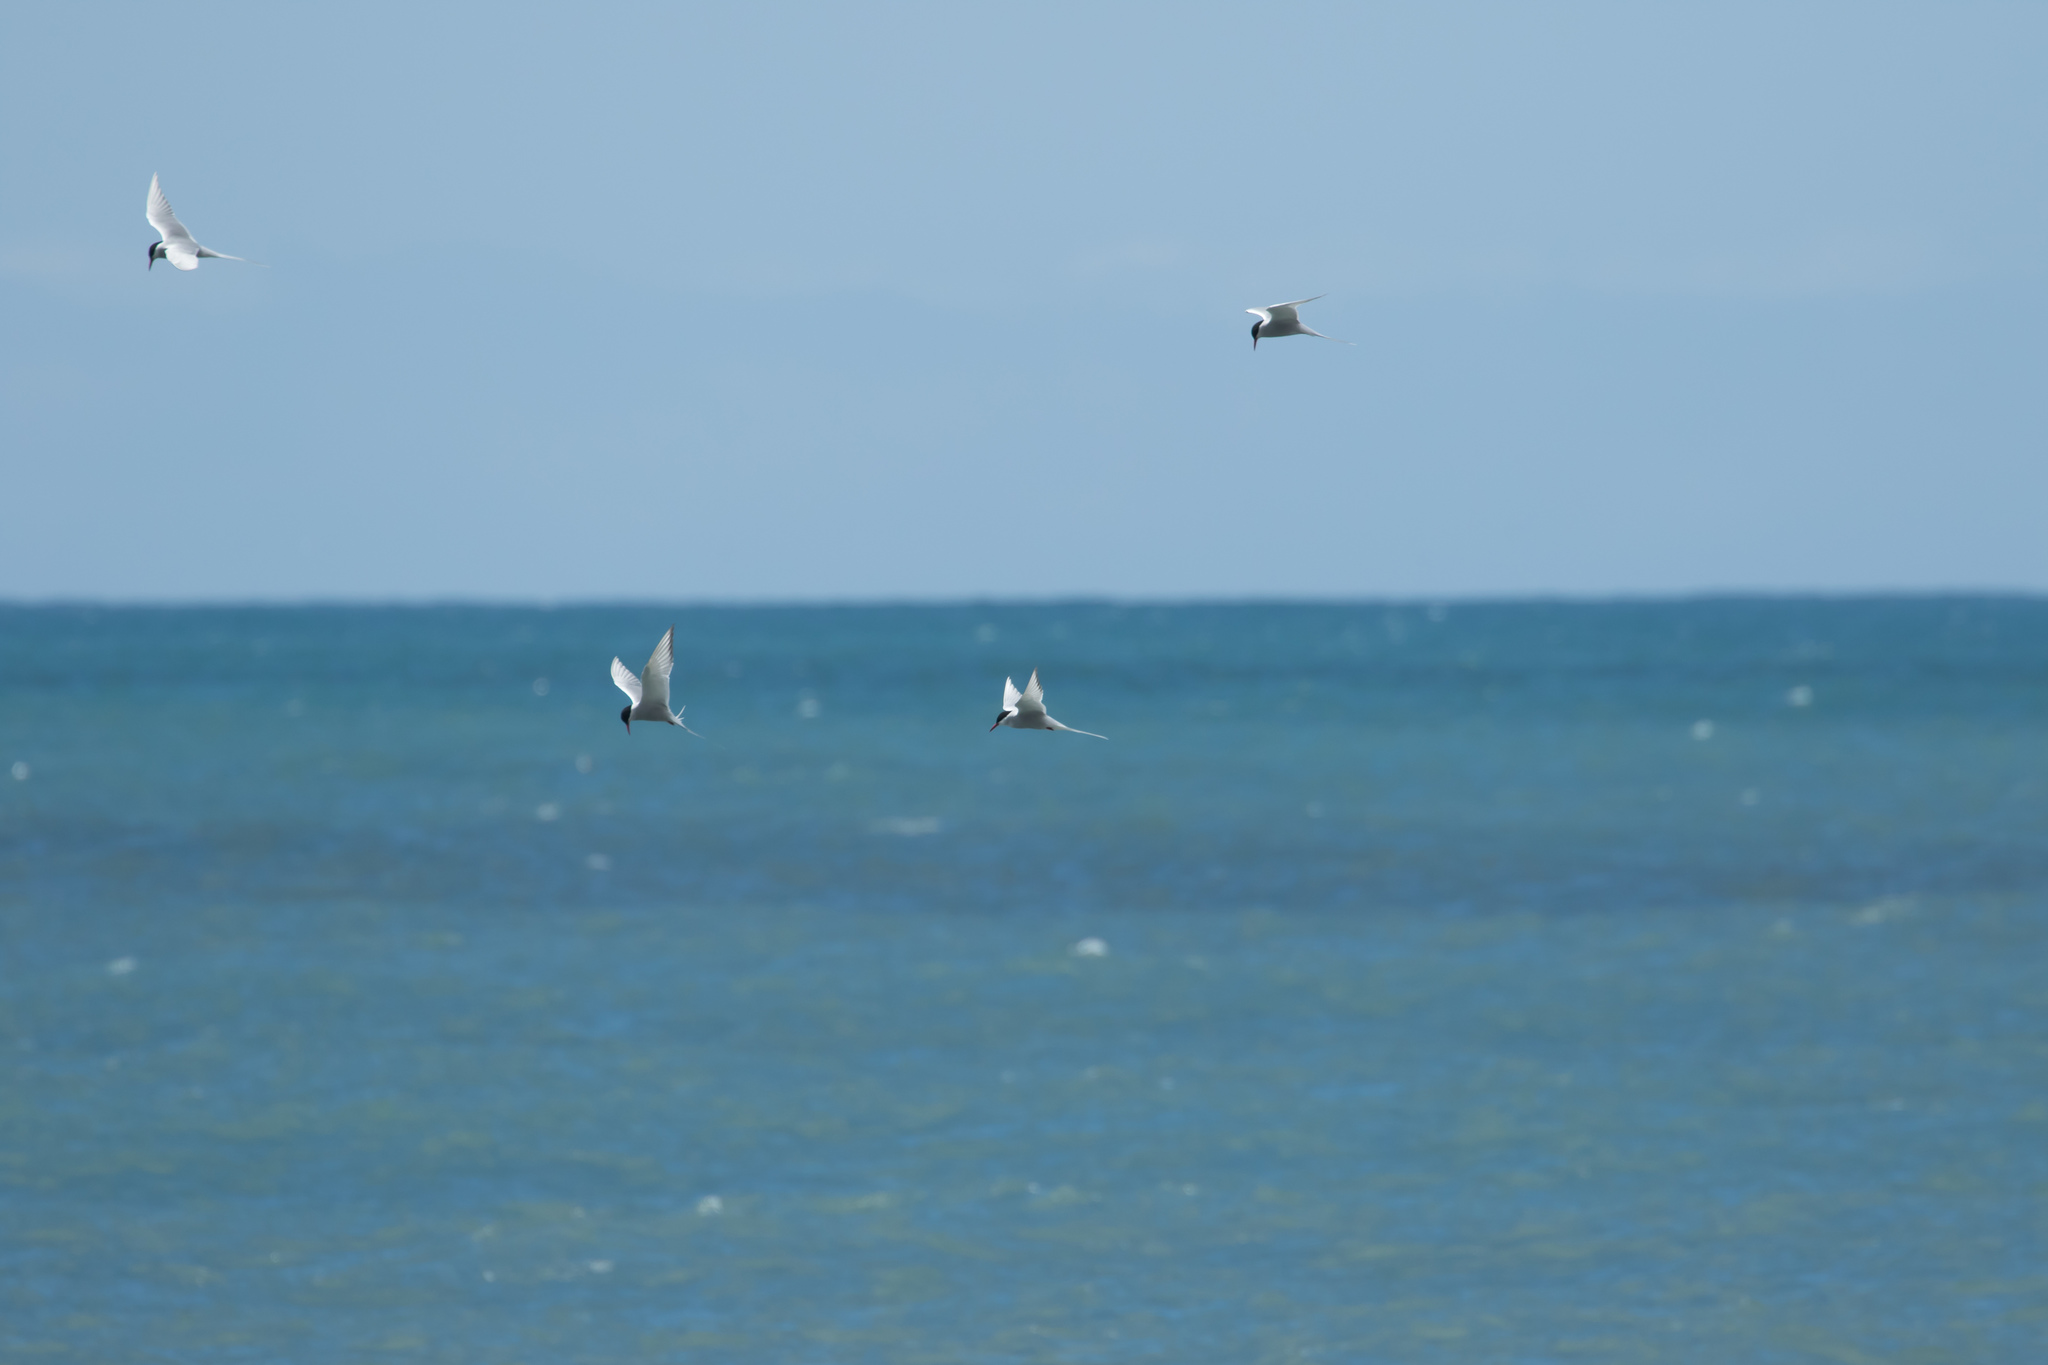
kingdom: Animalia
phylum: Chordata
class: Aves
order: Charadriiformes
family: Laridae
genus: Sterna
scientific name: Sterna paradisaea
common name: Arctic tern
